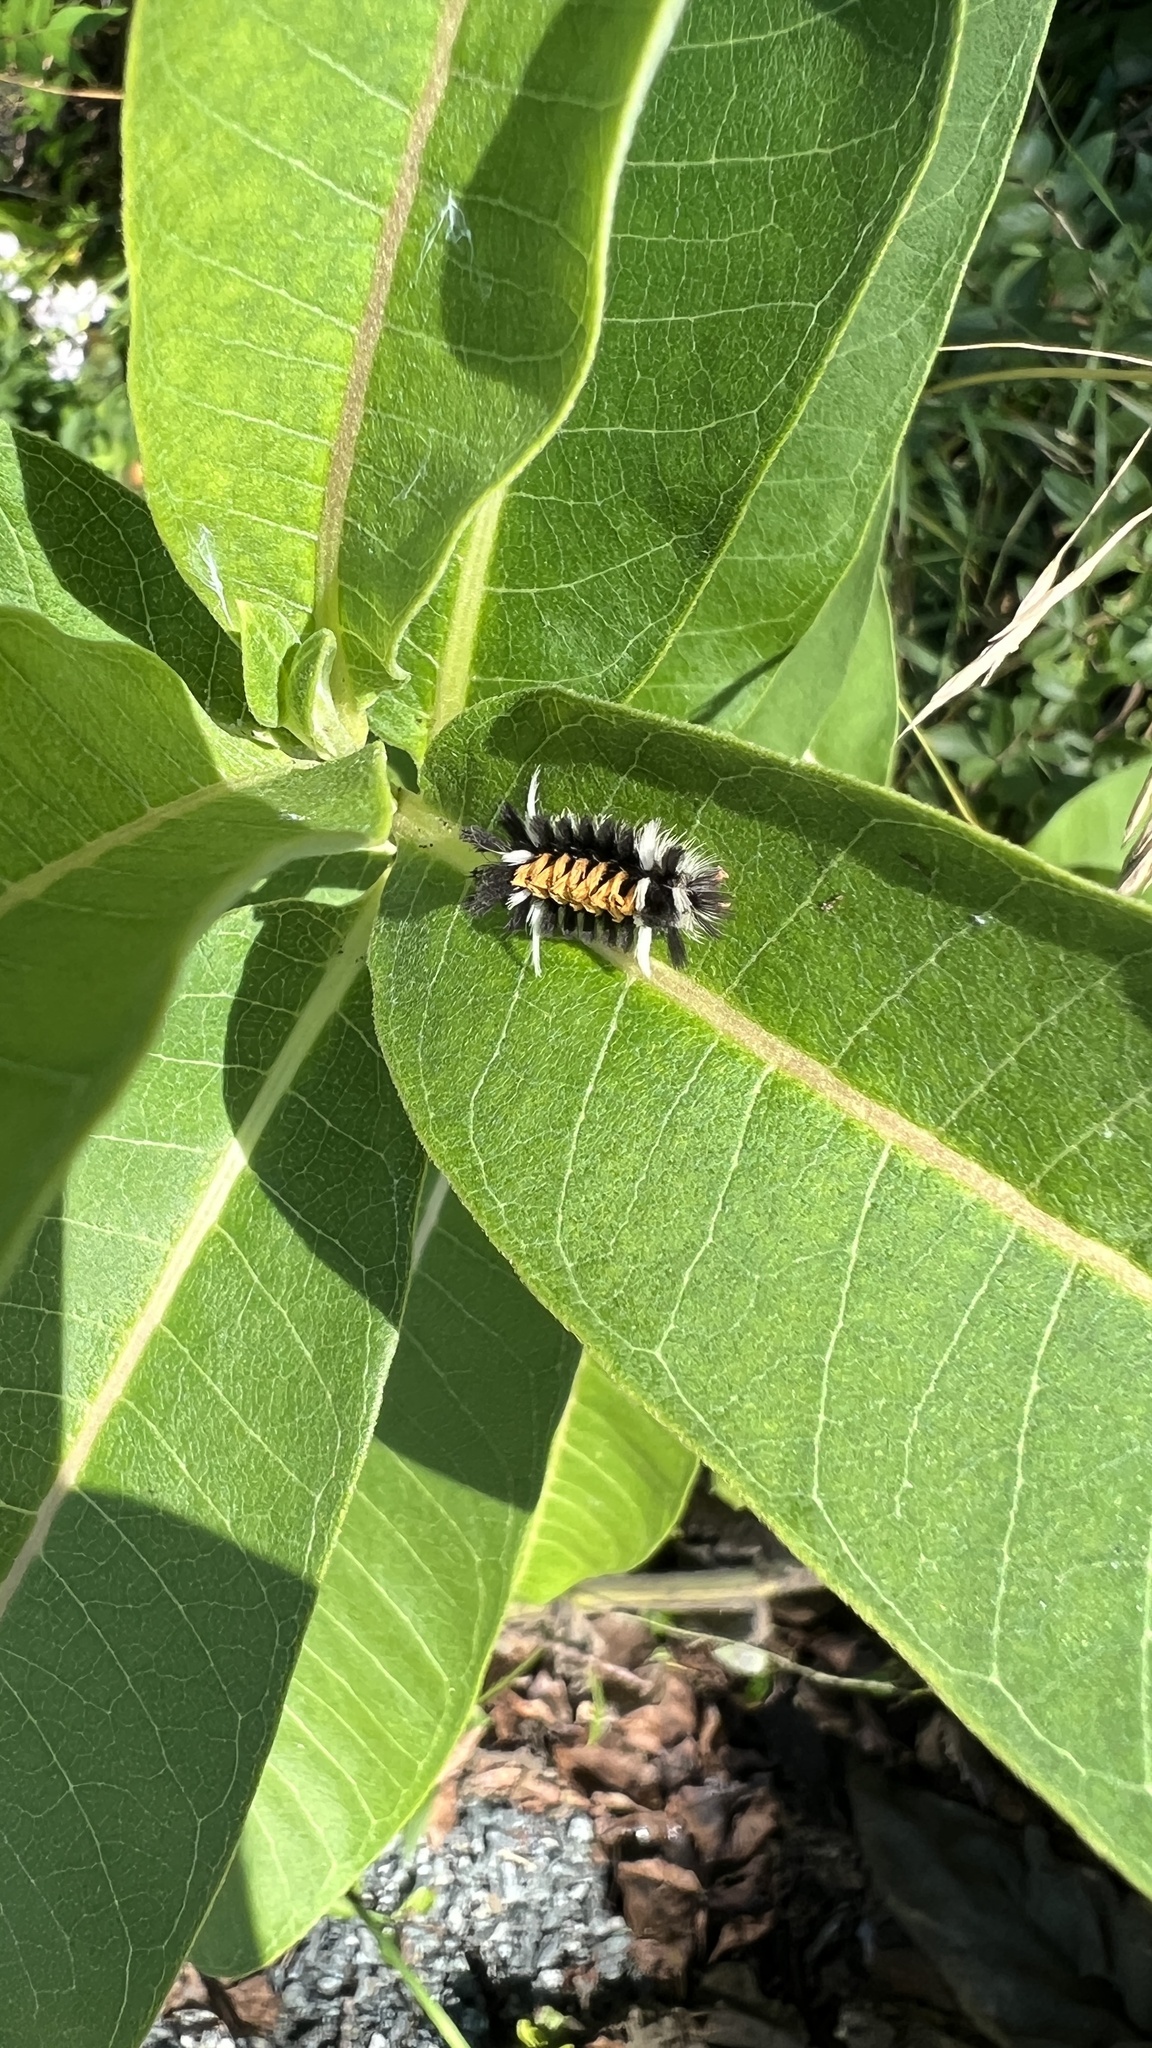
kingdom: Animalia
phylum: Arthropoda
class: Insecta
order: Lepidoptera
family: Erebidae
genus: Euchaetes
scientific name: Euchaetes egle
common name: Milkweed tussock moth
